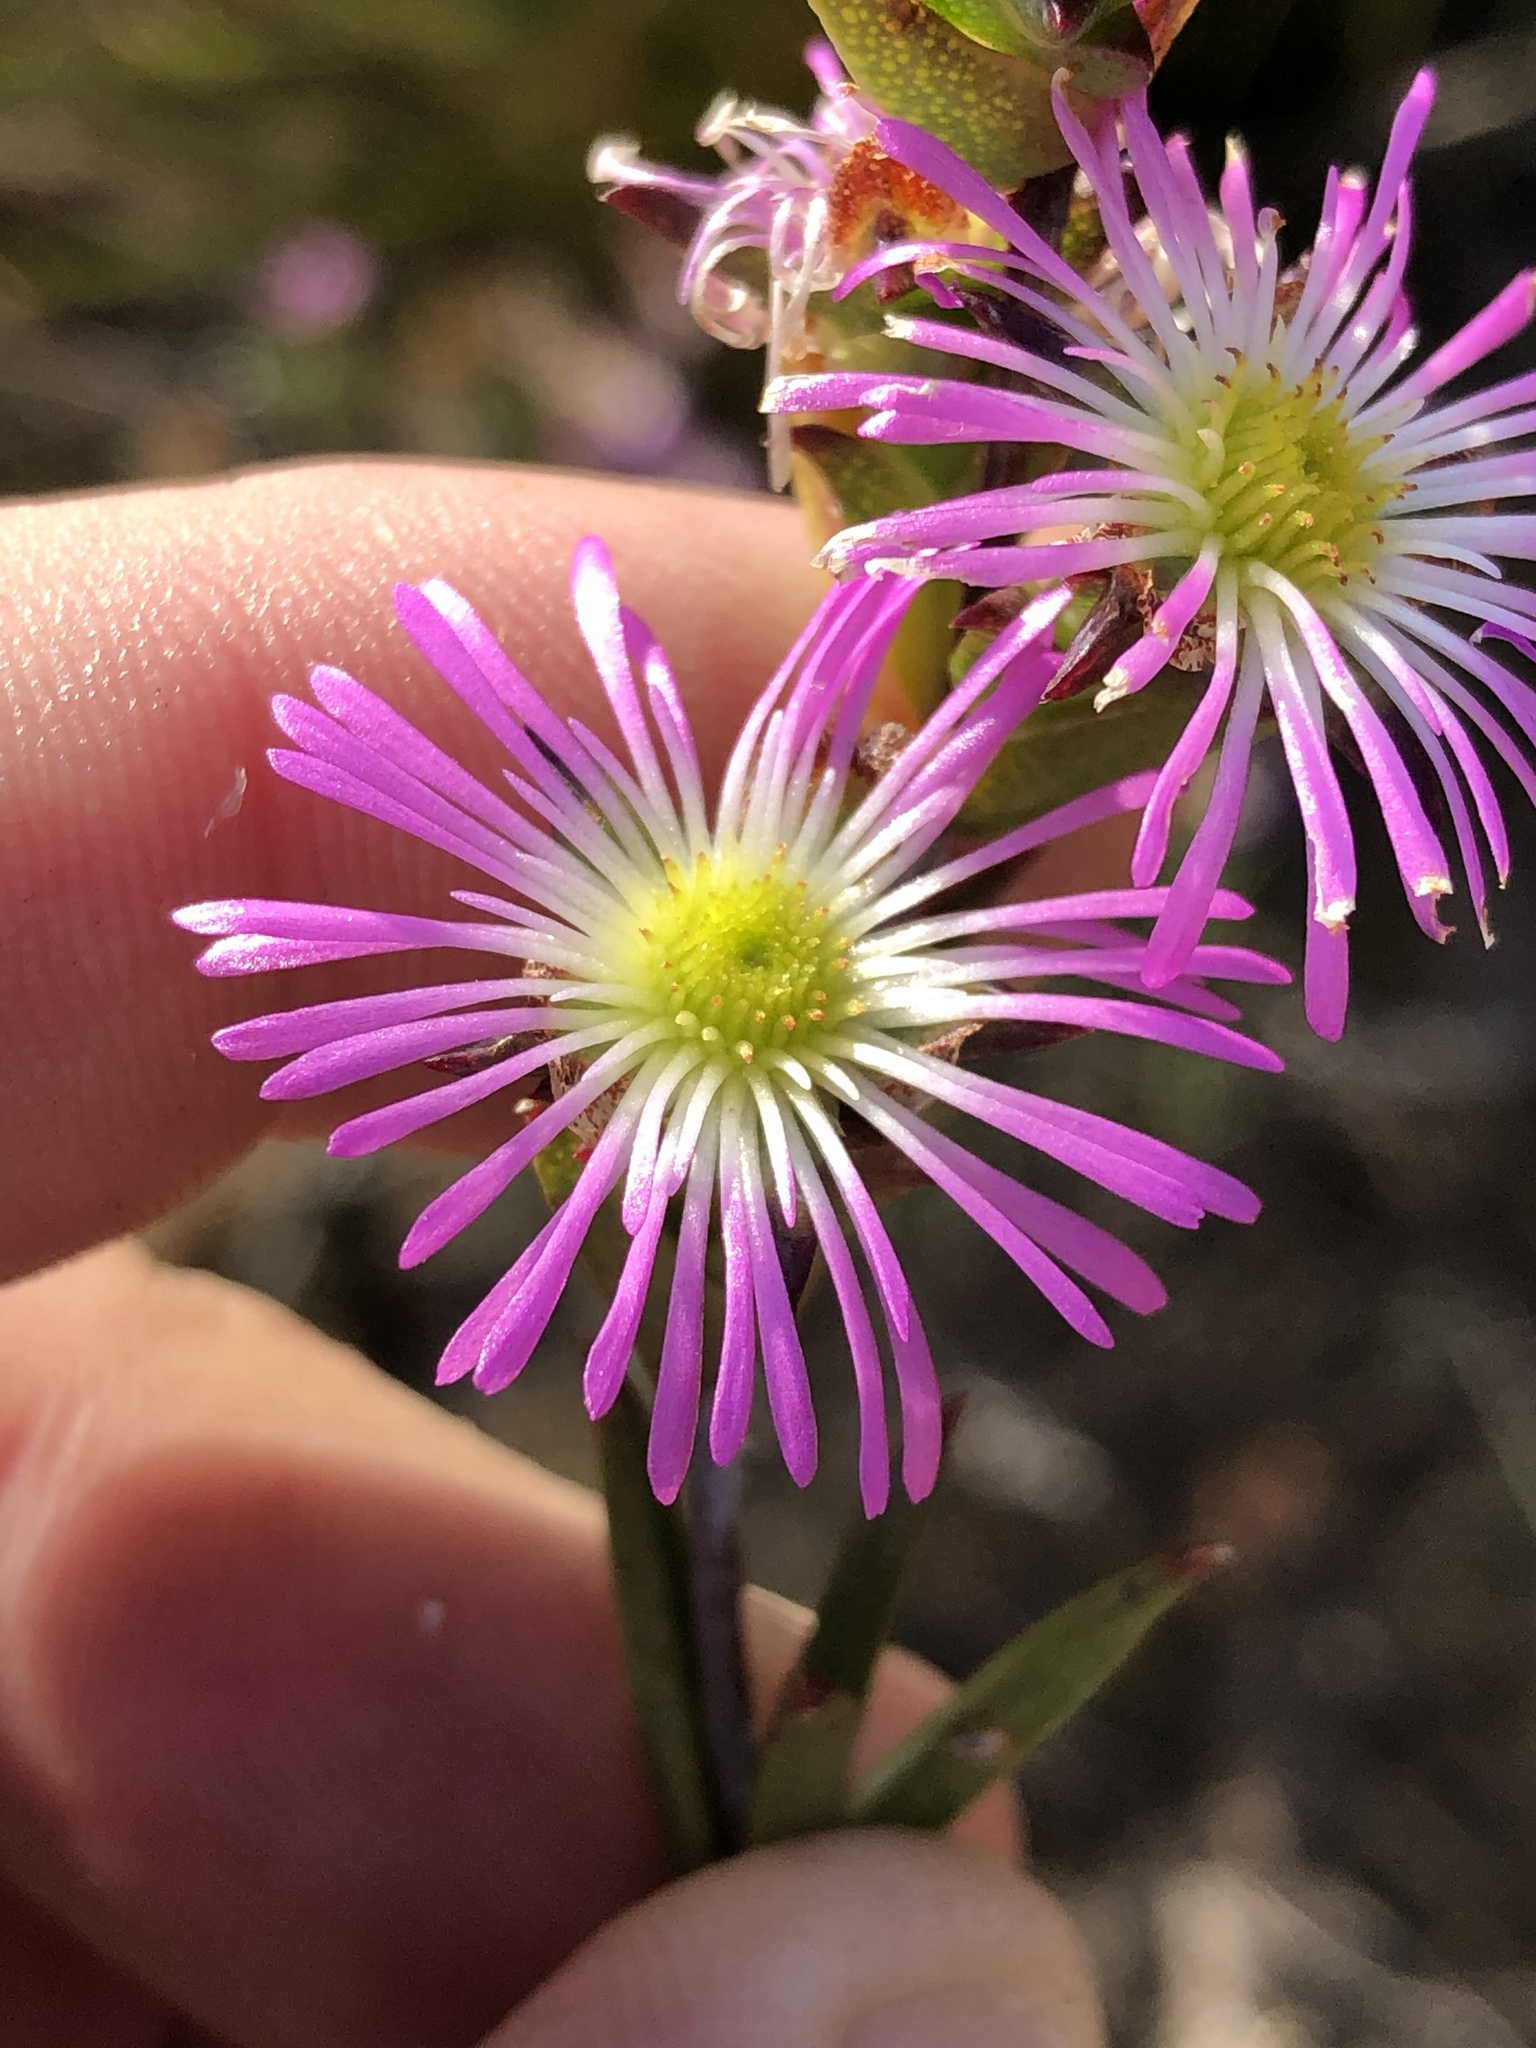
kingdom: Plantae
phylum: Tracheophyta
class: Magnoliopsida
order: Caryophyllales
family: Aizoaceae
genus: Erepsia
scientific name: Erepsia bracteata
